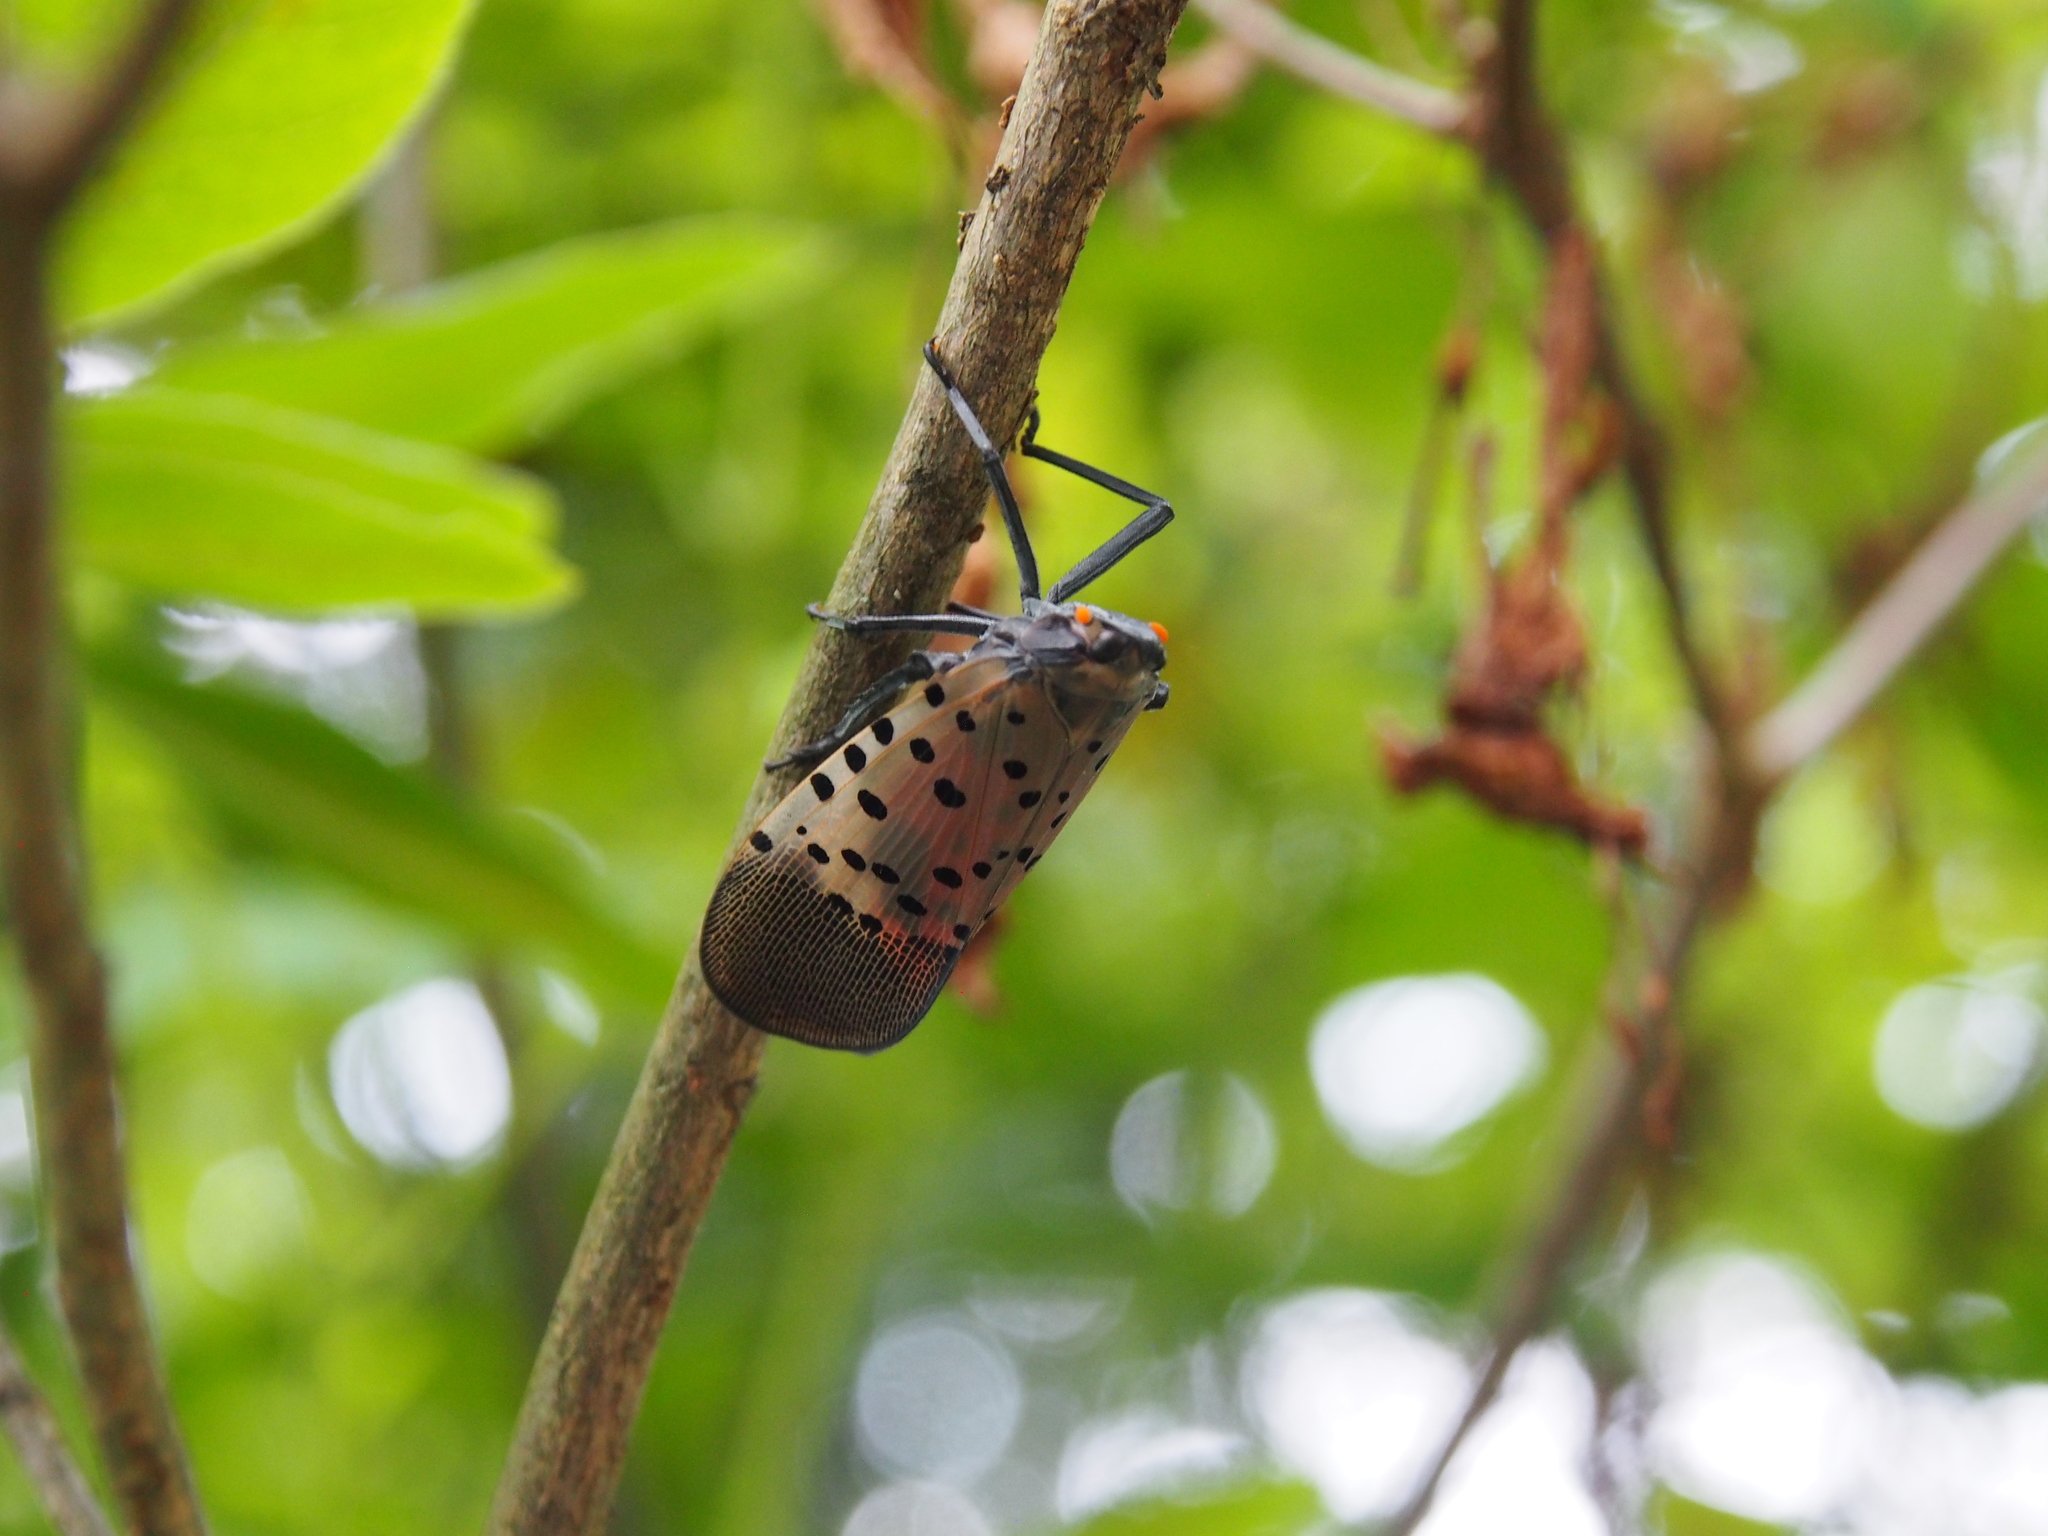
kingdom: Animalia
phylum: Arthropoda
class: Insecta
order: Hemiptera
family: Fulgoridae
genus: Lycorma
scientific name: Lycorma delicatula
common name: Spotted lanternfly
